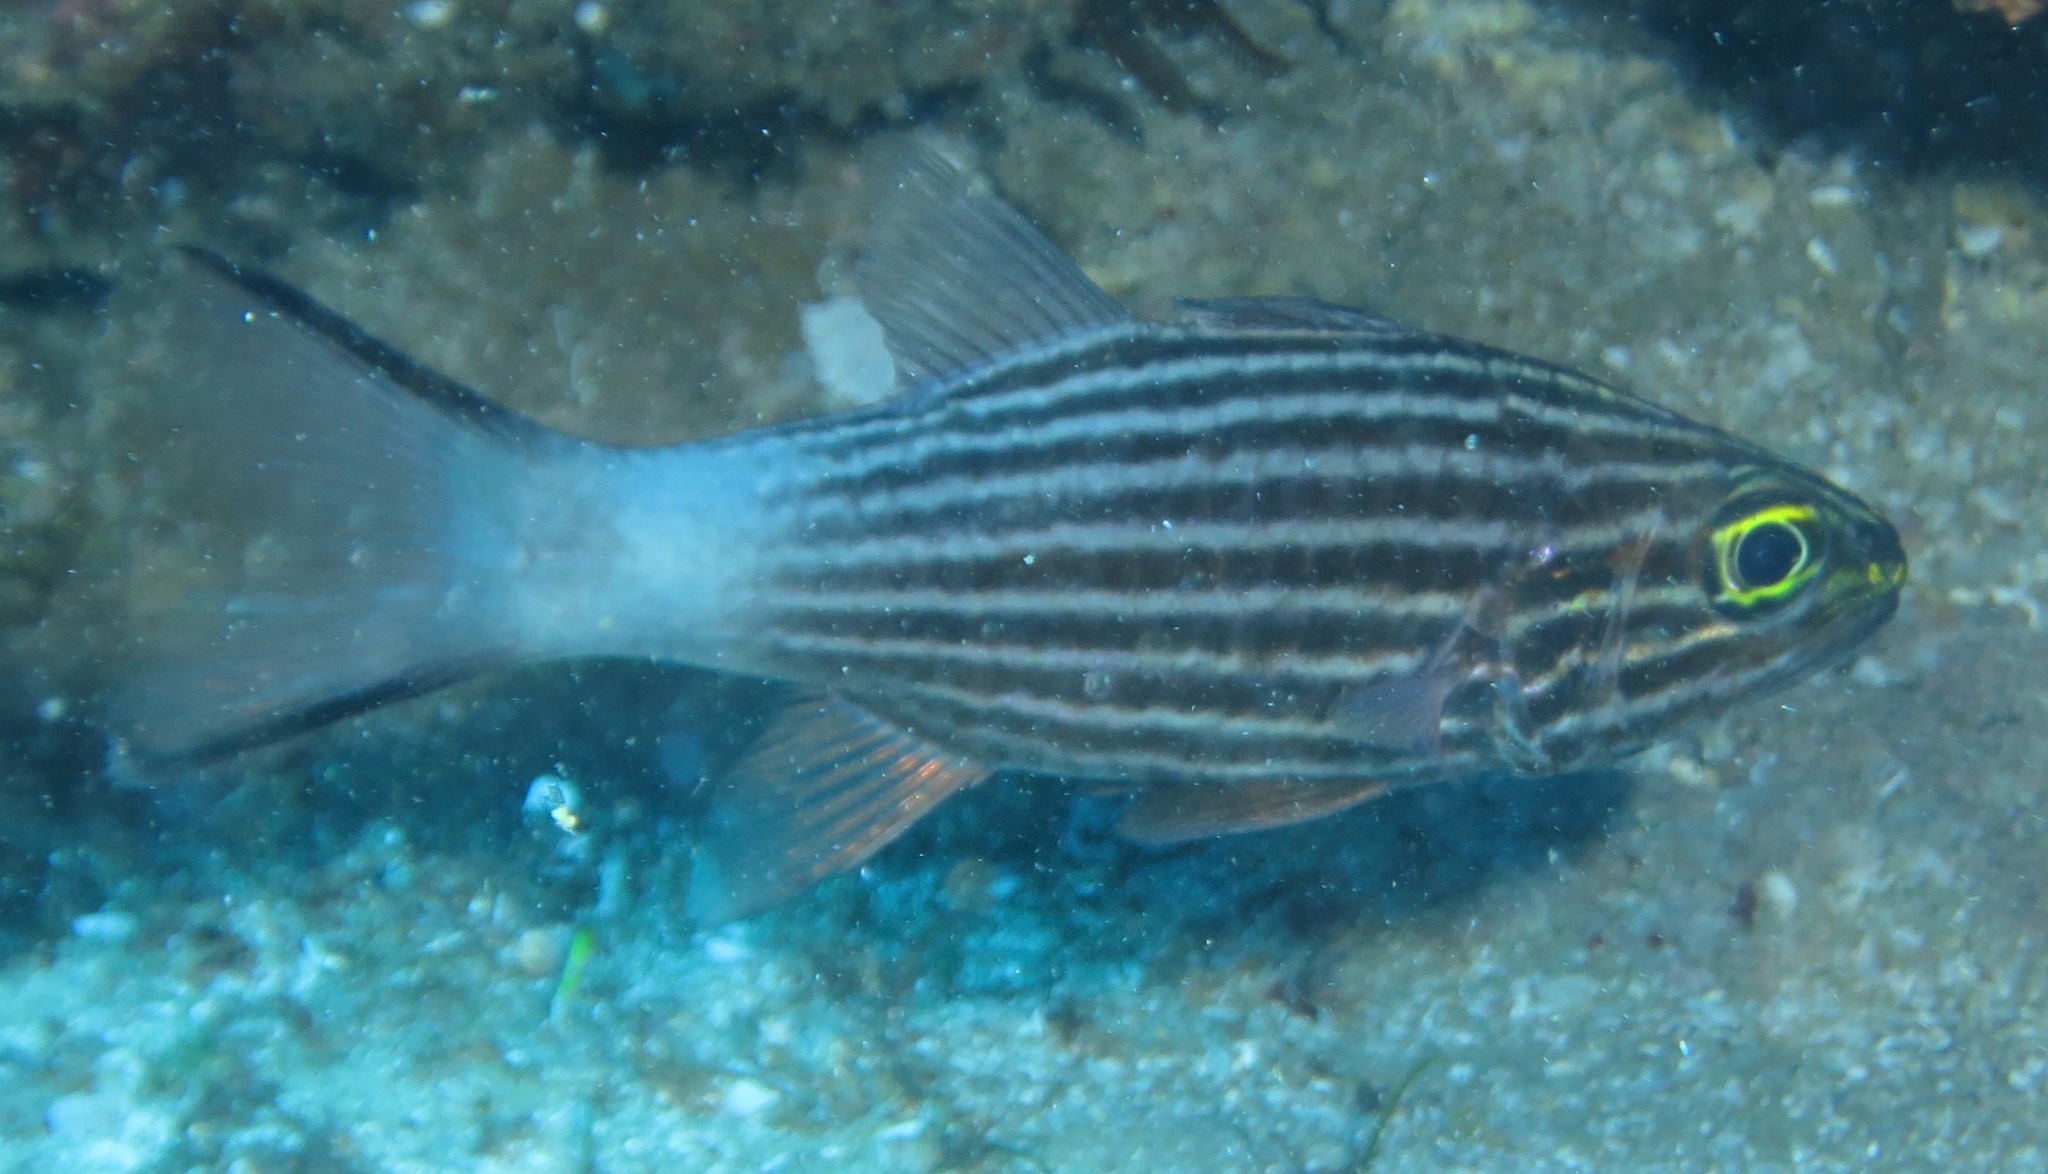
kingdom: Animalia
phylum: Chordata
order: Perciformes
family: Apogonidae
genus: Cheilodipterus
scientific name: Cheilodipterus macrodon
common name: Eight-lined cardinalfish
